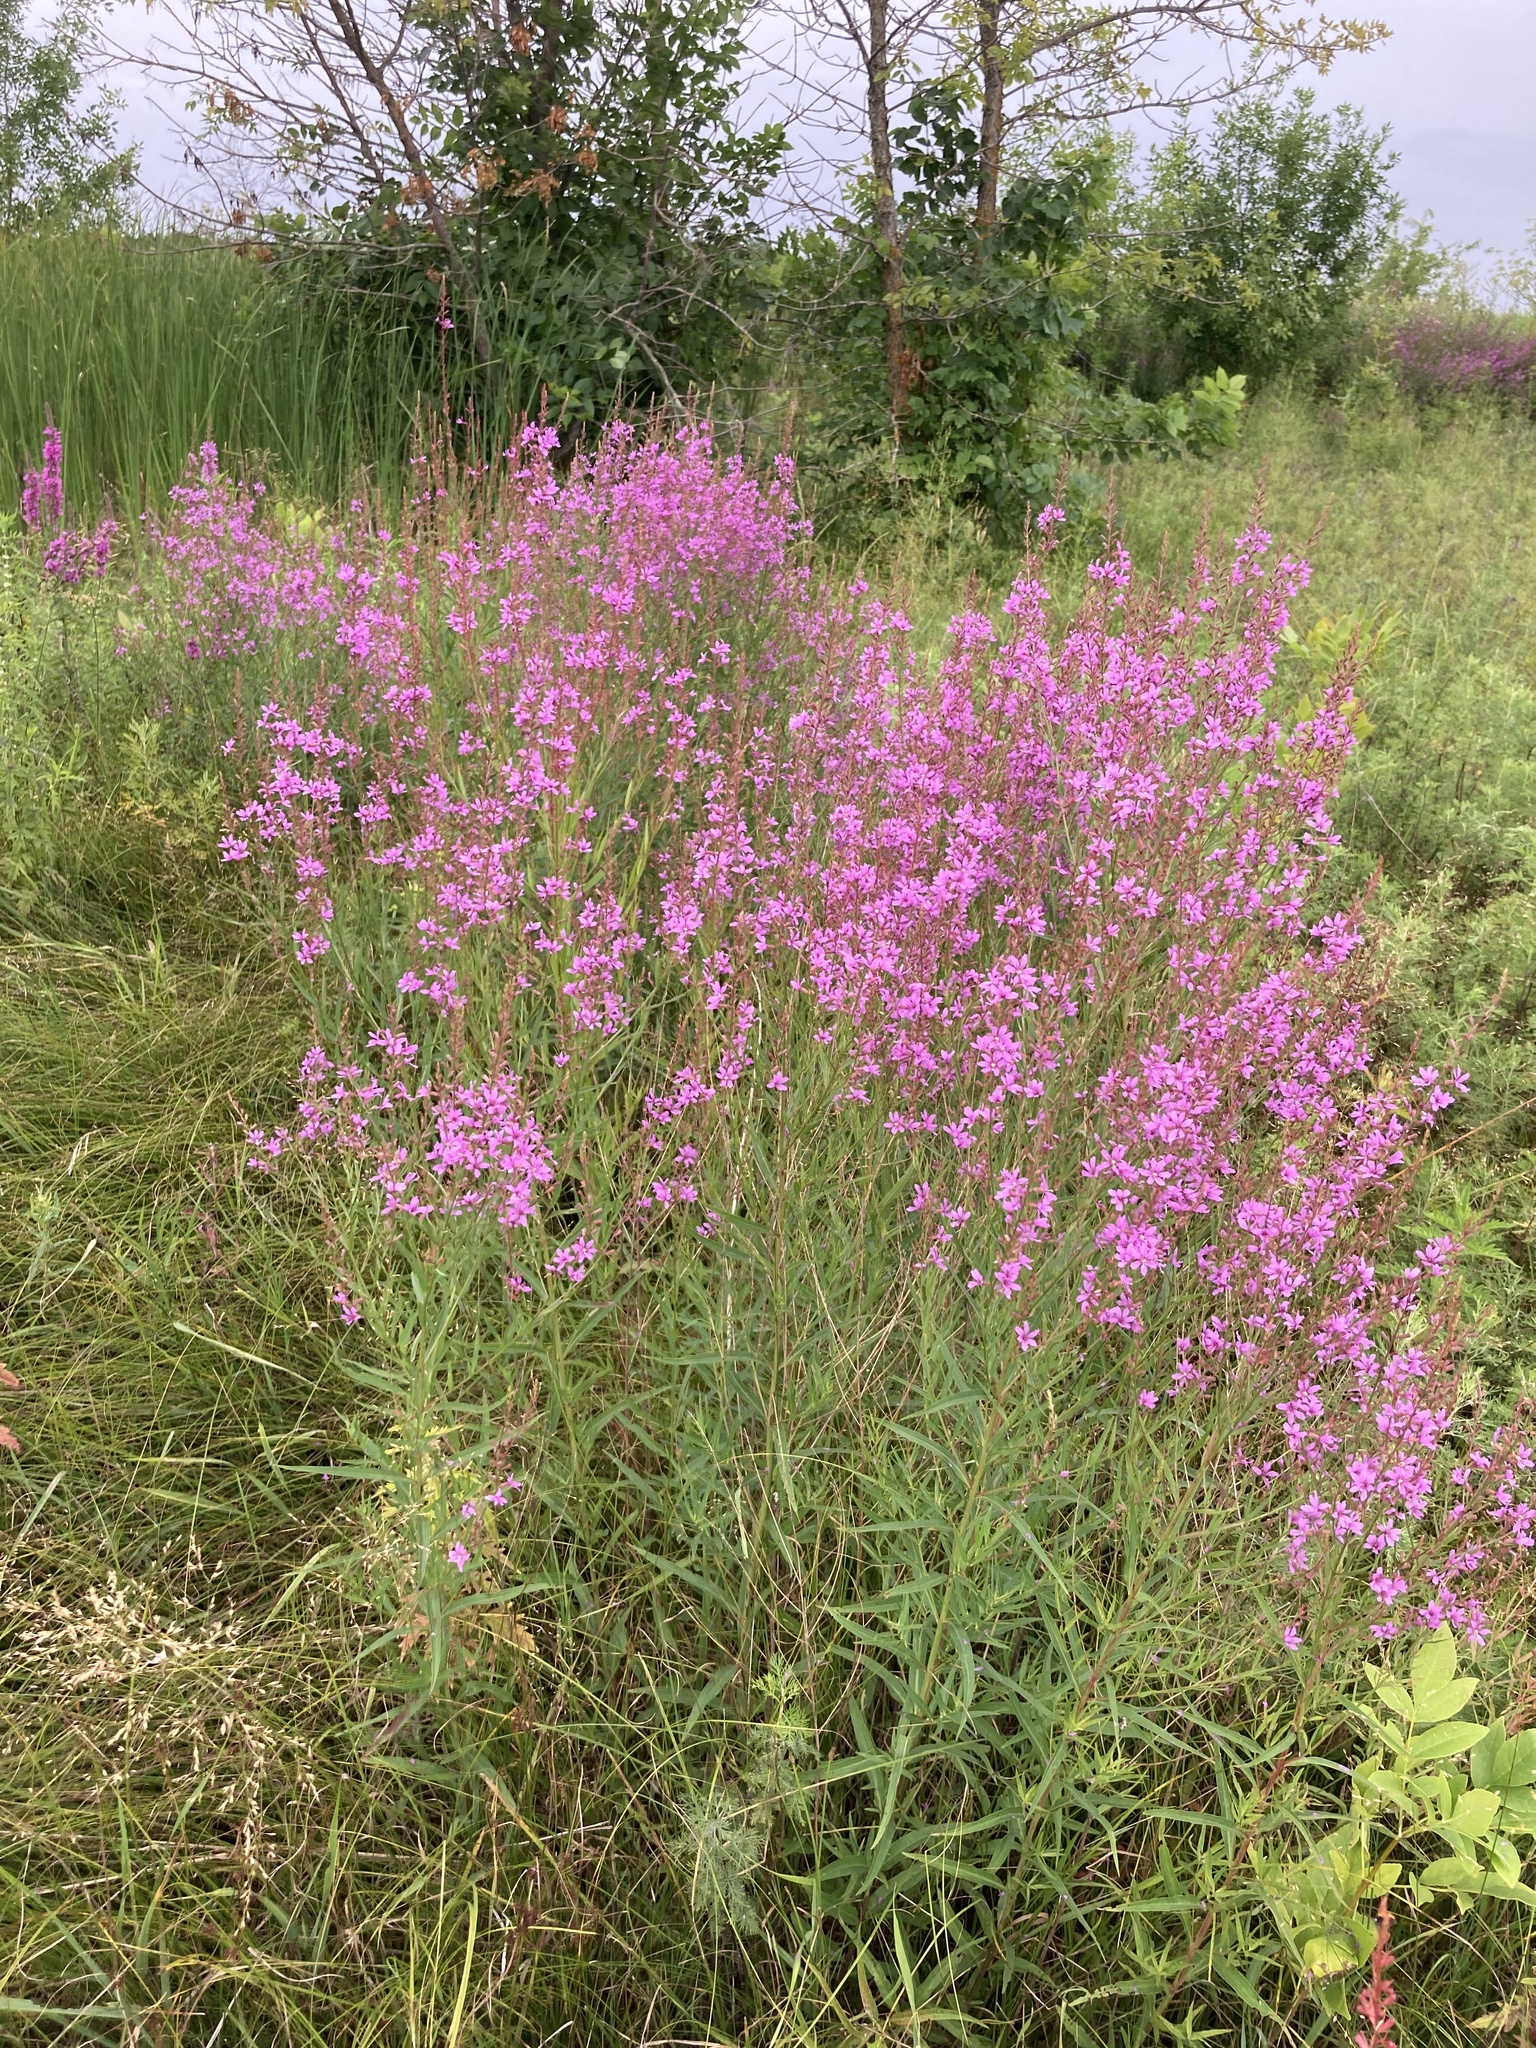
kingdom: Plantae
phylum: Tracheophyta
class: Magnoliopsida
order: Myrtales
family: Lythraceae
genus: Lythrum
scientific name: Lythrum virgatum
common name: European wand loosestrife
